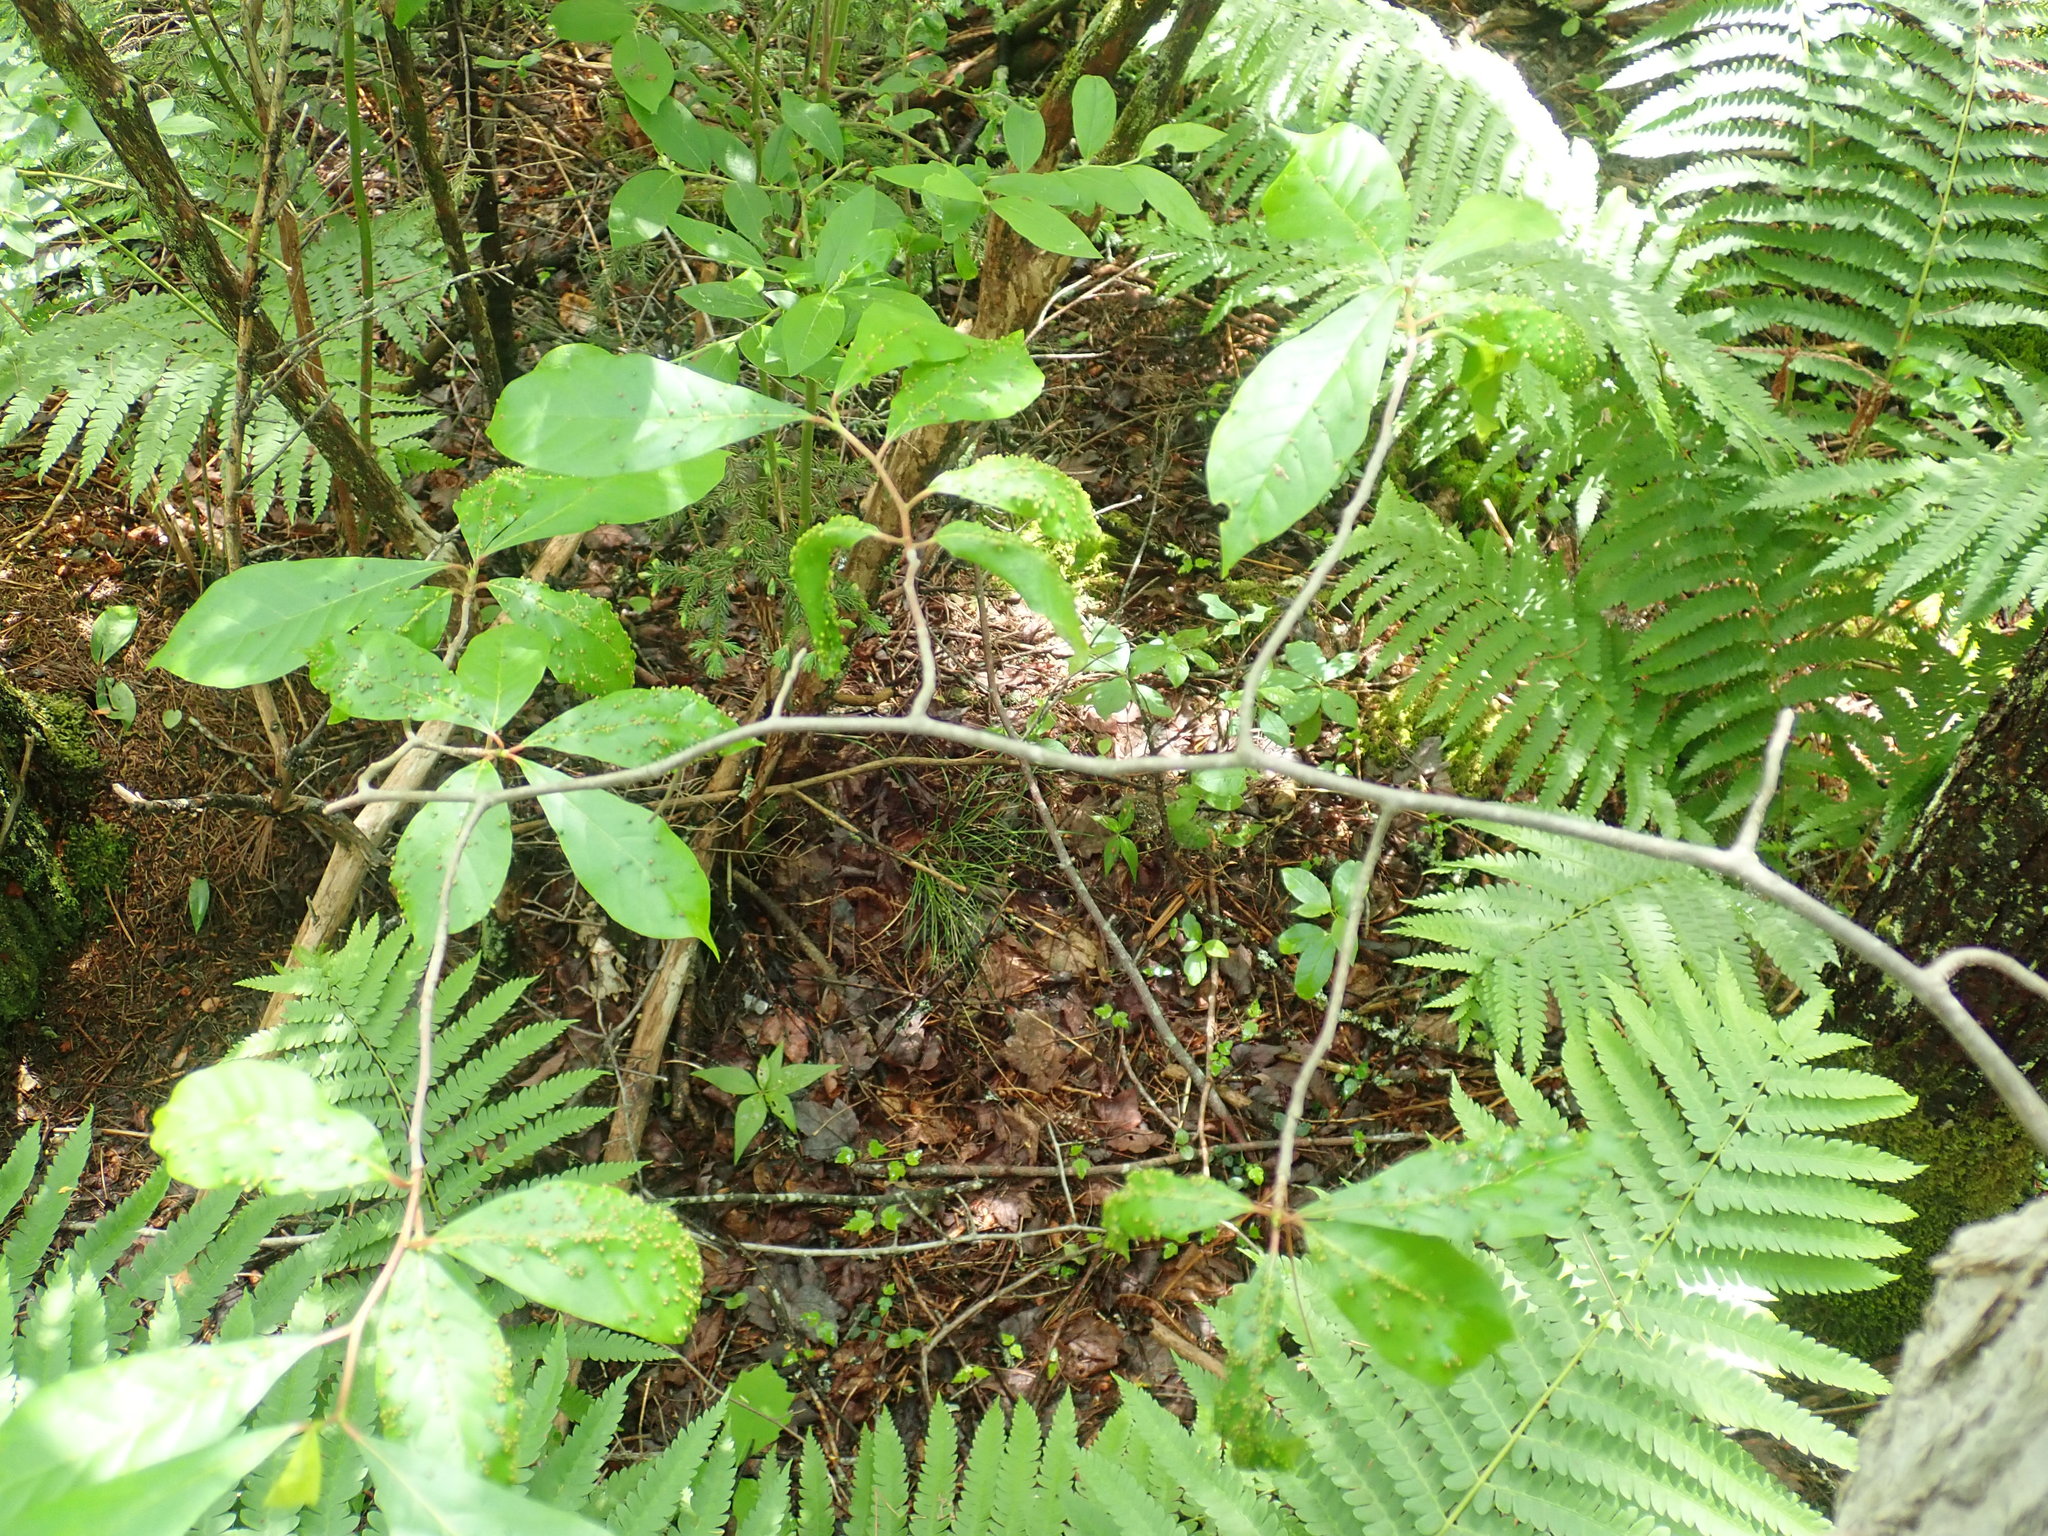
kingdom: Plantae
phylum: Tracheophyta
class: Magnoliopsida
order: Cornales
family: Nyssaceae
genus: Nyssa
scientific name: Nyssa sylvatica
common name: Black tupelo
